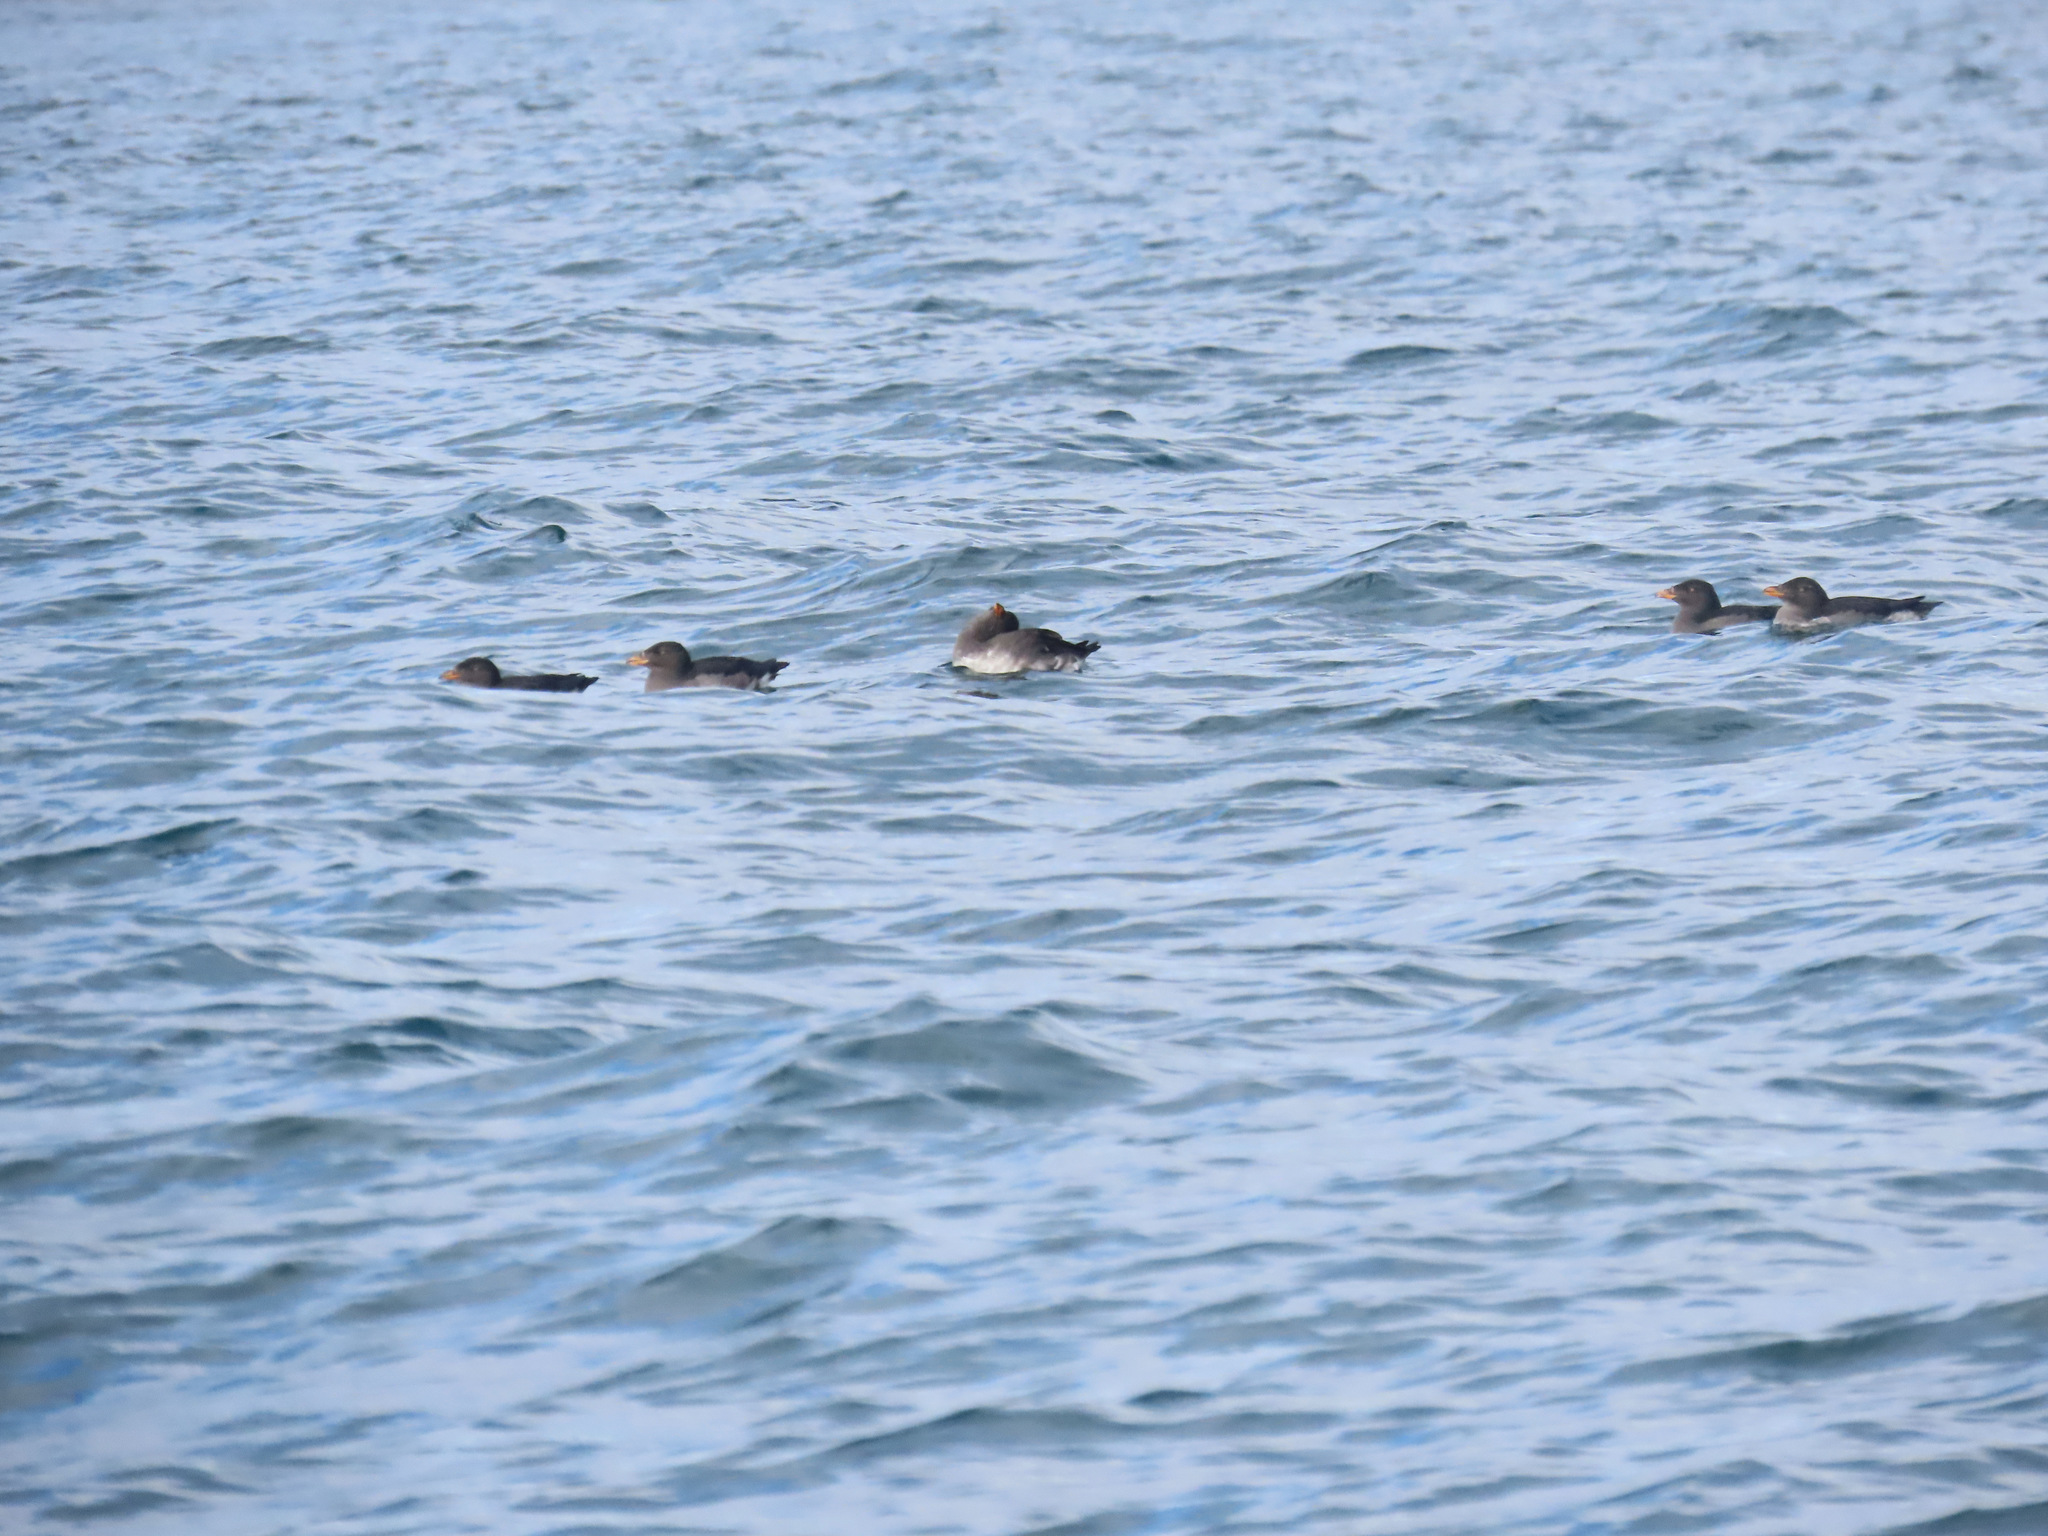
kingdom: Animalia
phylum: Chordata
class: Aves
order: Charadriiformes
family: Alcidae
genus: Cerorhinca
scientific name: Cerorhinca monocerata
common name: Rhinoceros auklet
